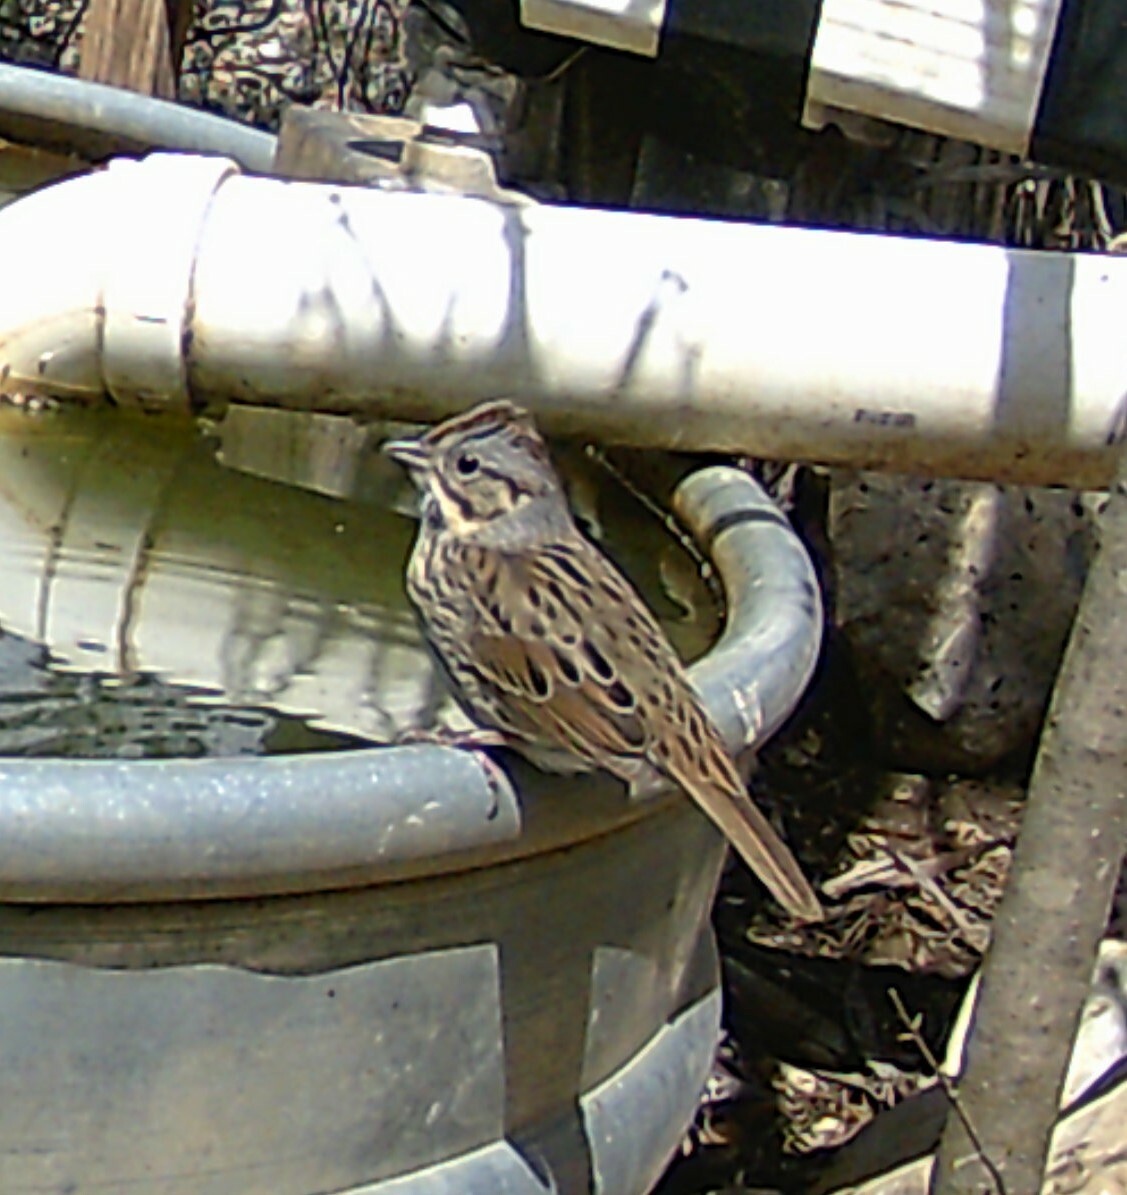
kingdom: Animalia
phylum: Chordata
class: Aves
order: Passeriformes
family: Passerellidae
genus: Melospiza
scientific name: Melospiza lincolnii
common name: Lincoln's sparrow
